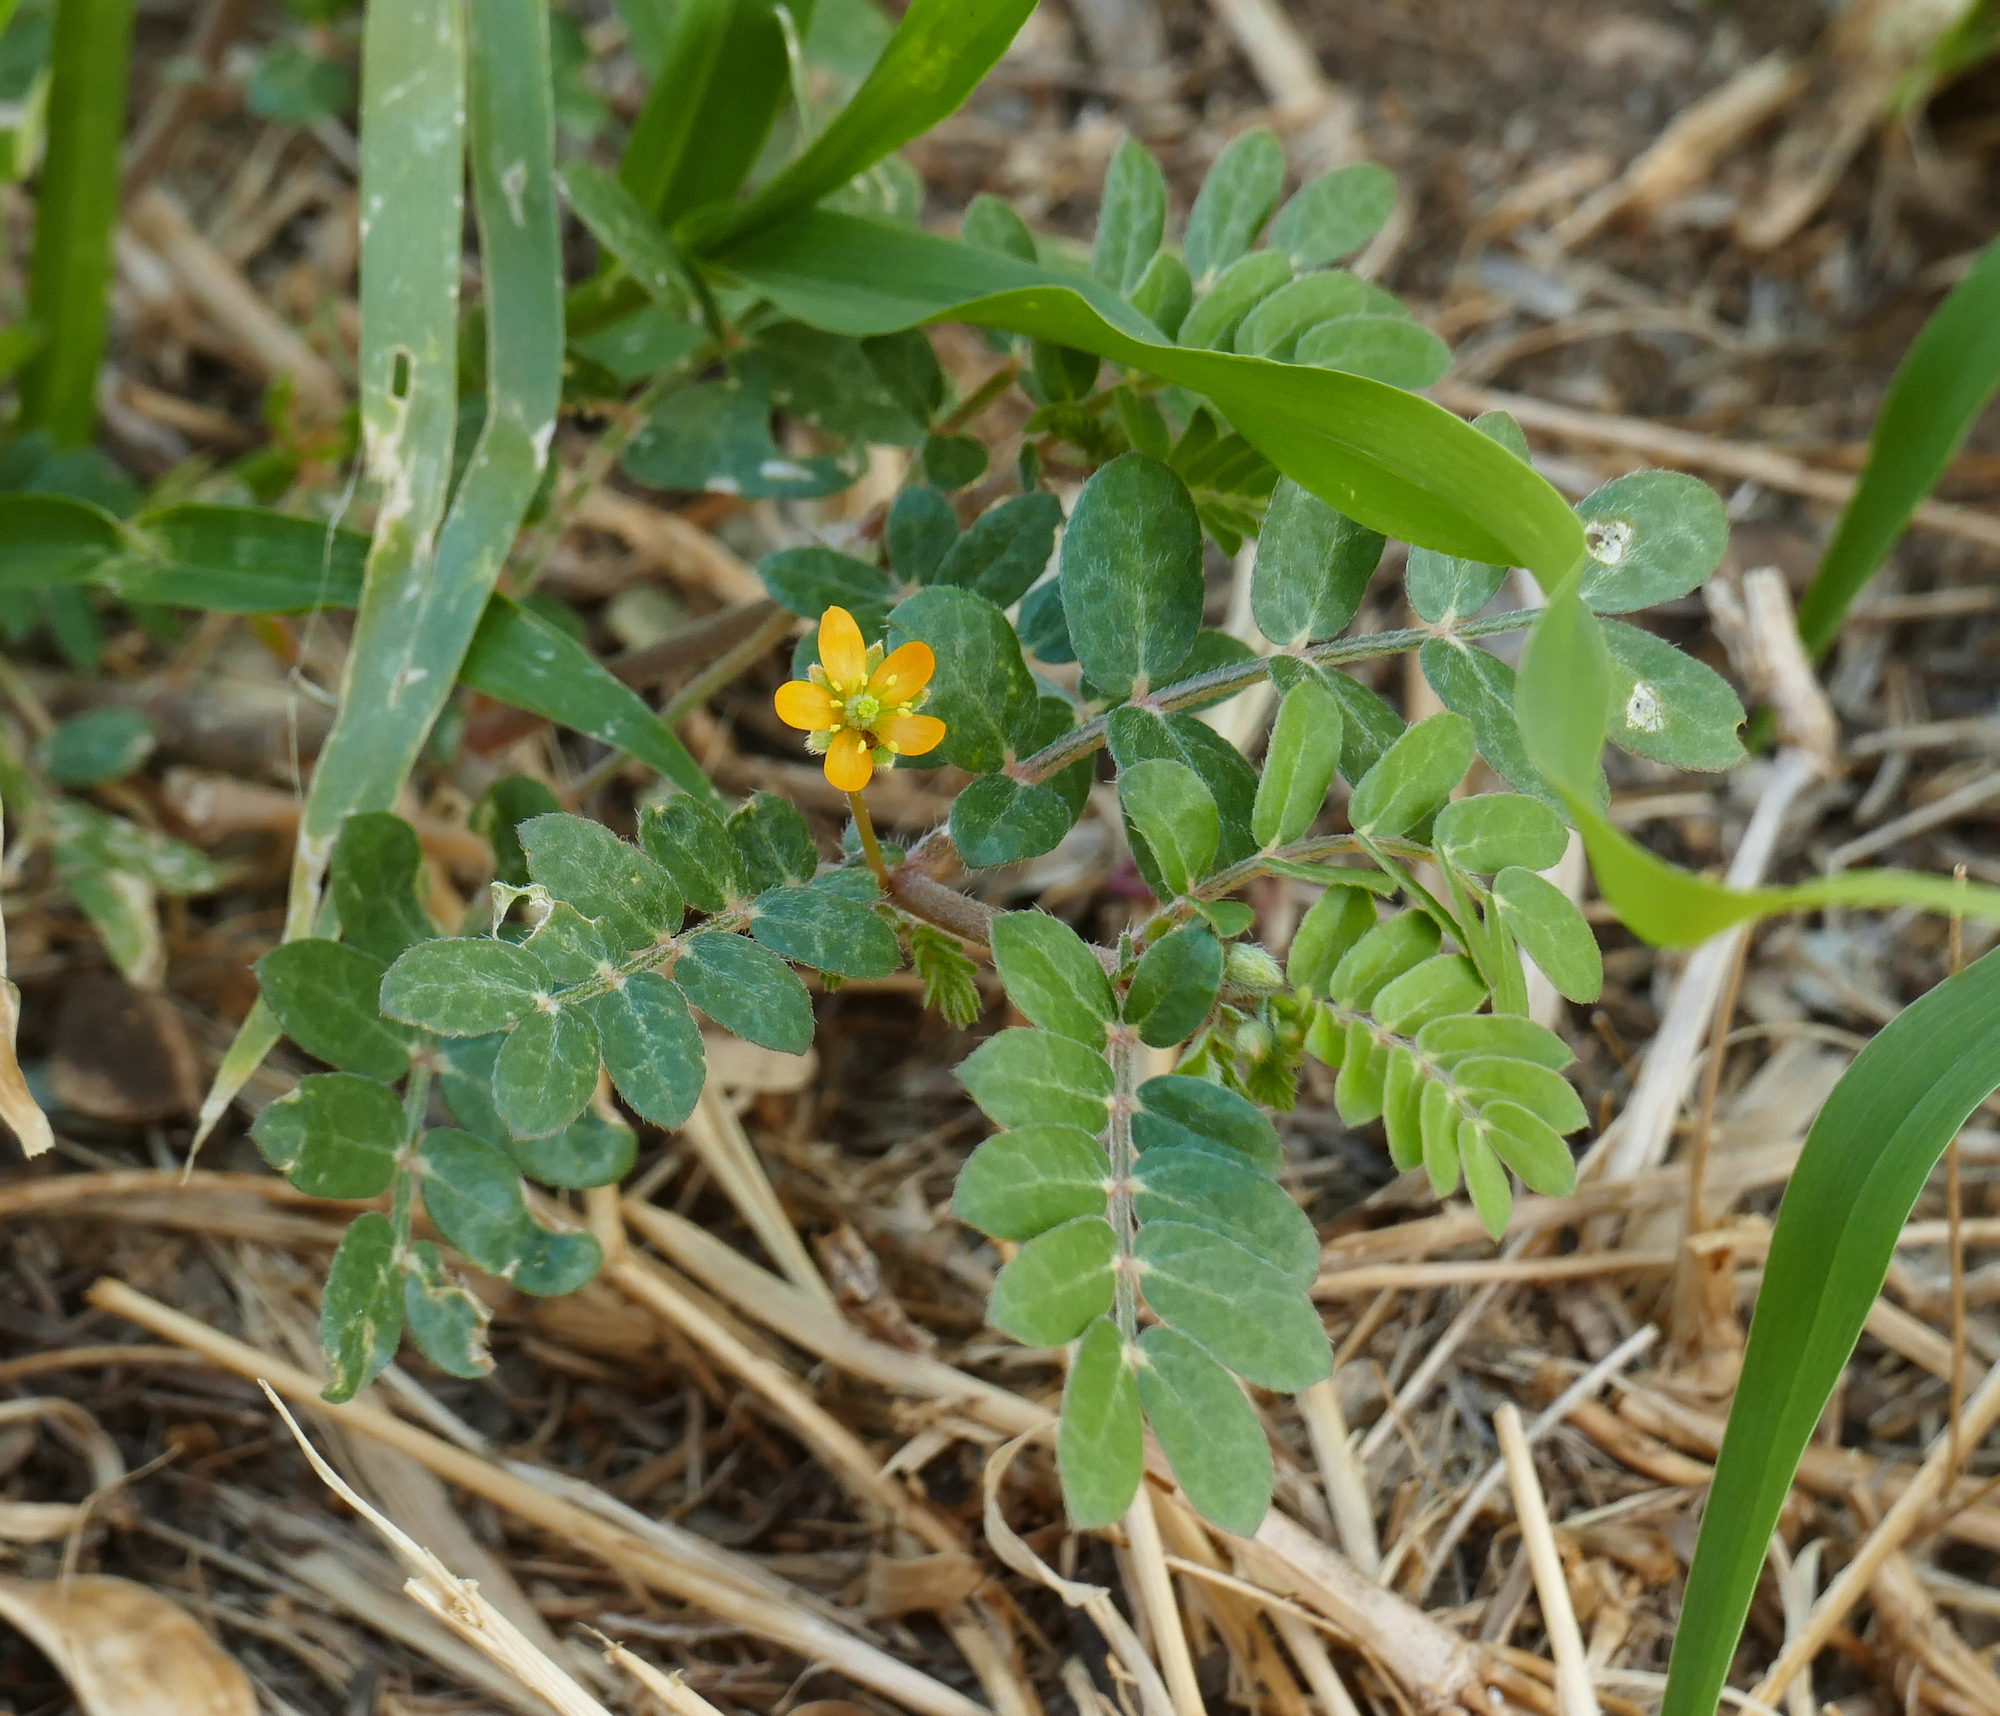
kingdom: Plantae
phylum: Tracheophyta
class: Magnoliopsida
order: Zygophyllales
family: Zygophyllaceae
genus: Kallstroemia
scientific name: Kallstroemia californica
